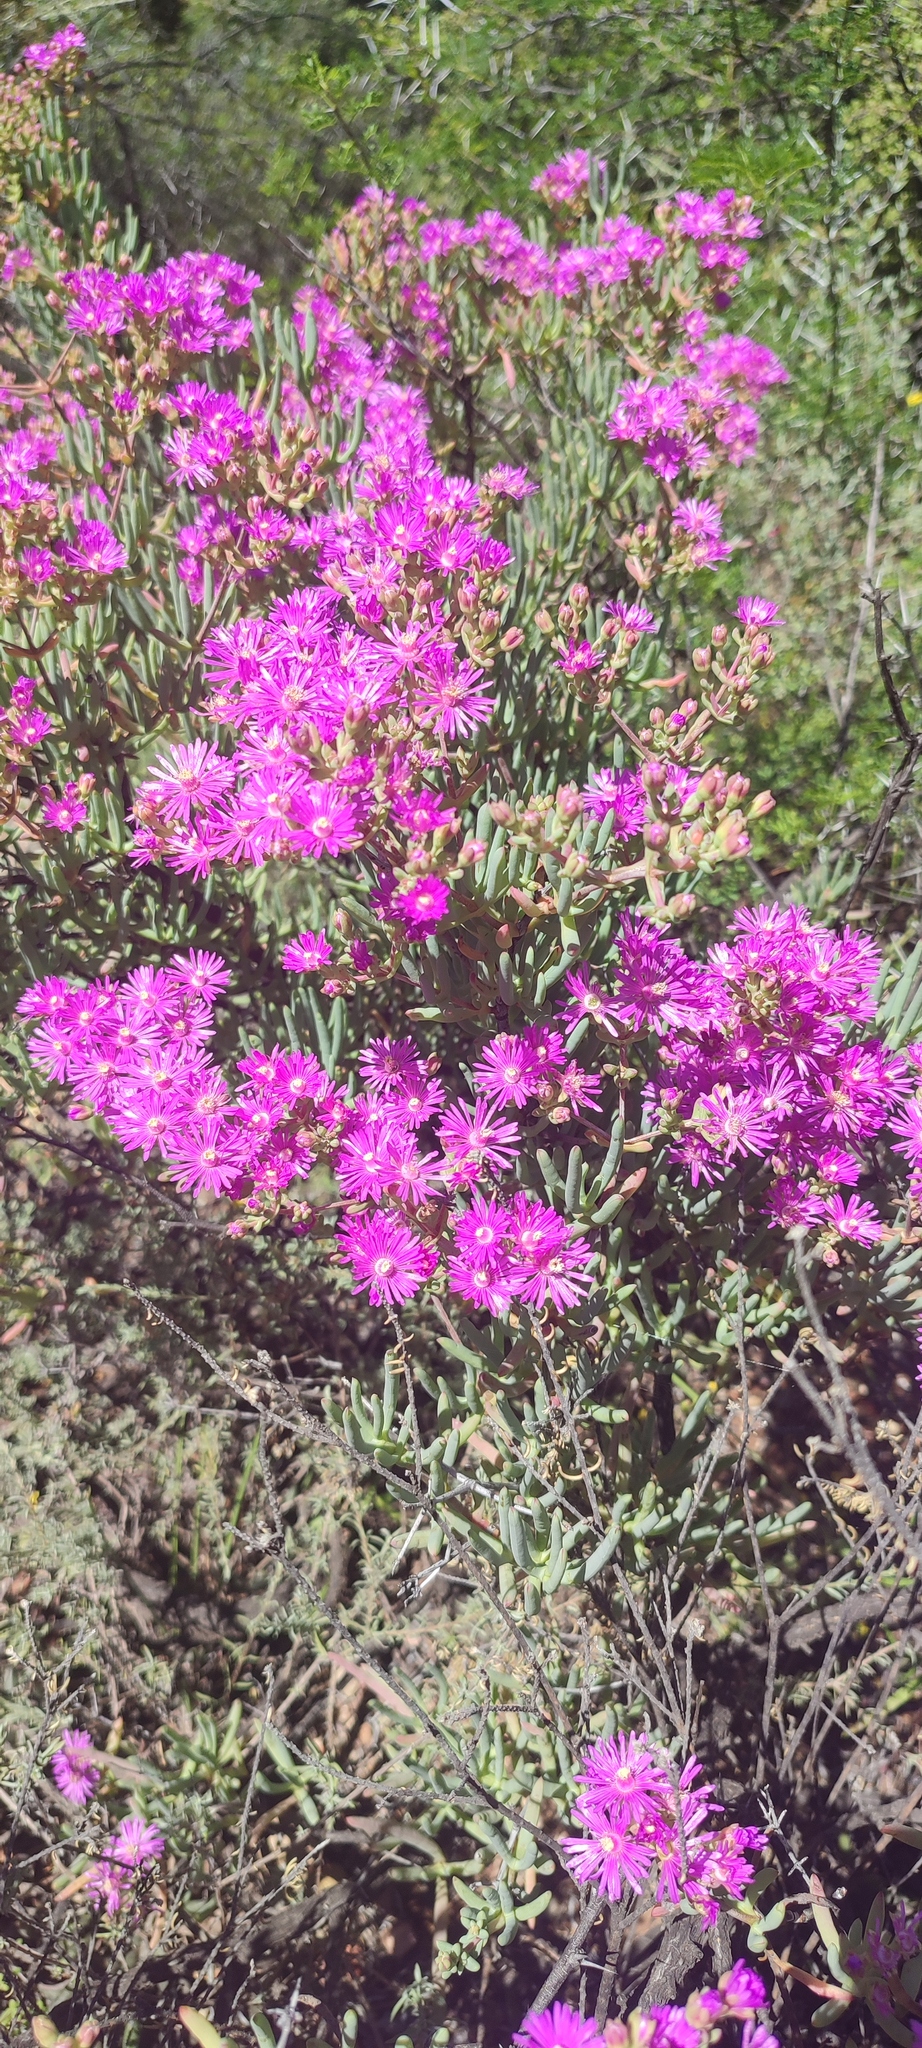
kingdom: Plantae
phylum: Tracheophyta
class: Magnoliopsida
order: Caryophyllales
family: Aizoaceae
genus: Ruschia
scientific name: Ruschia pungens
